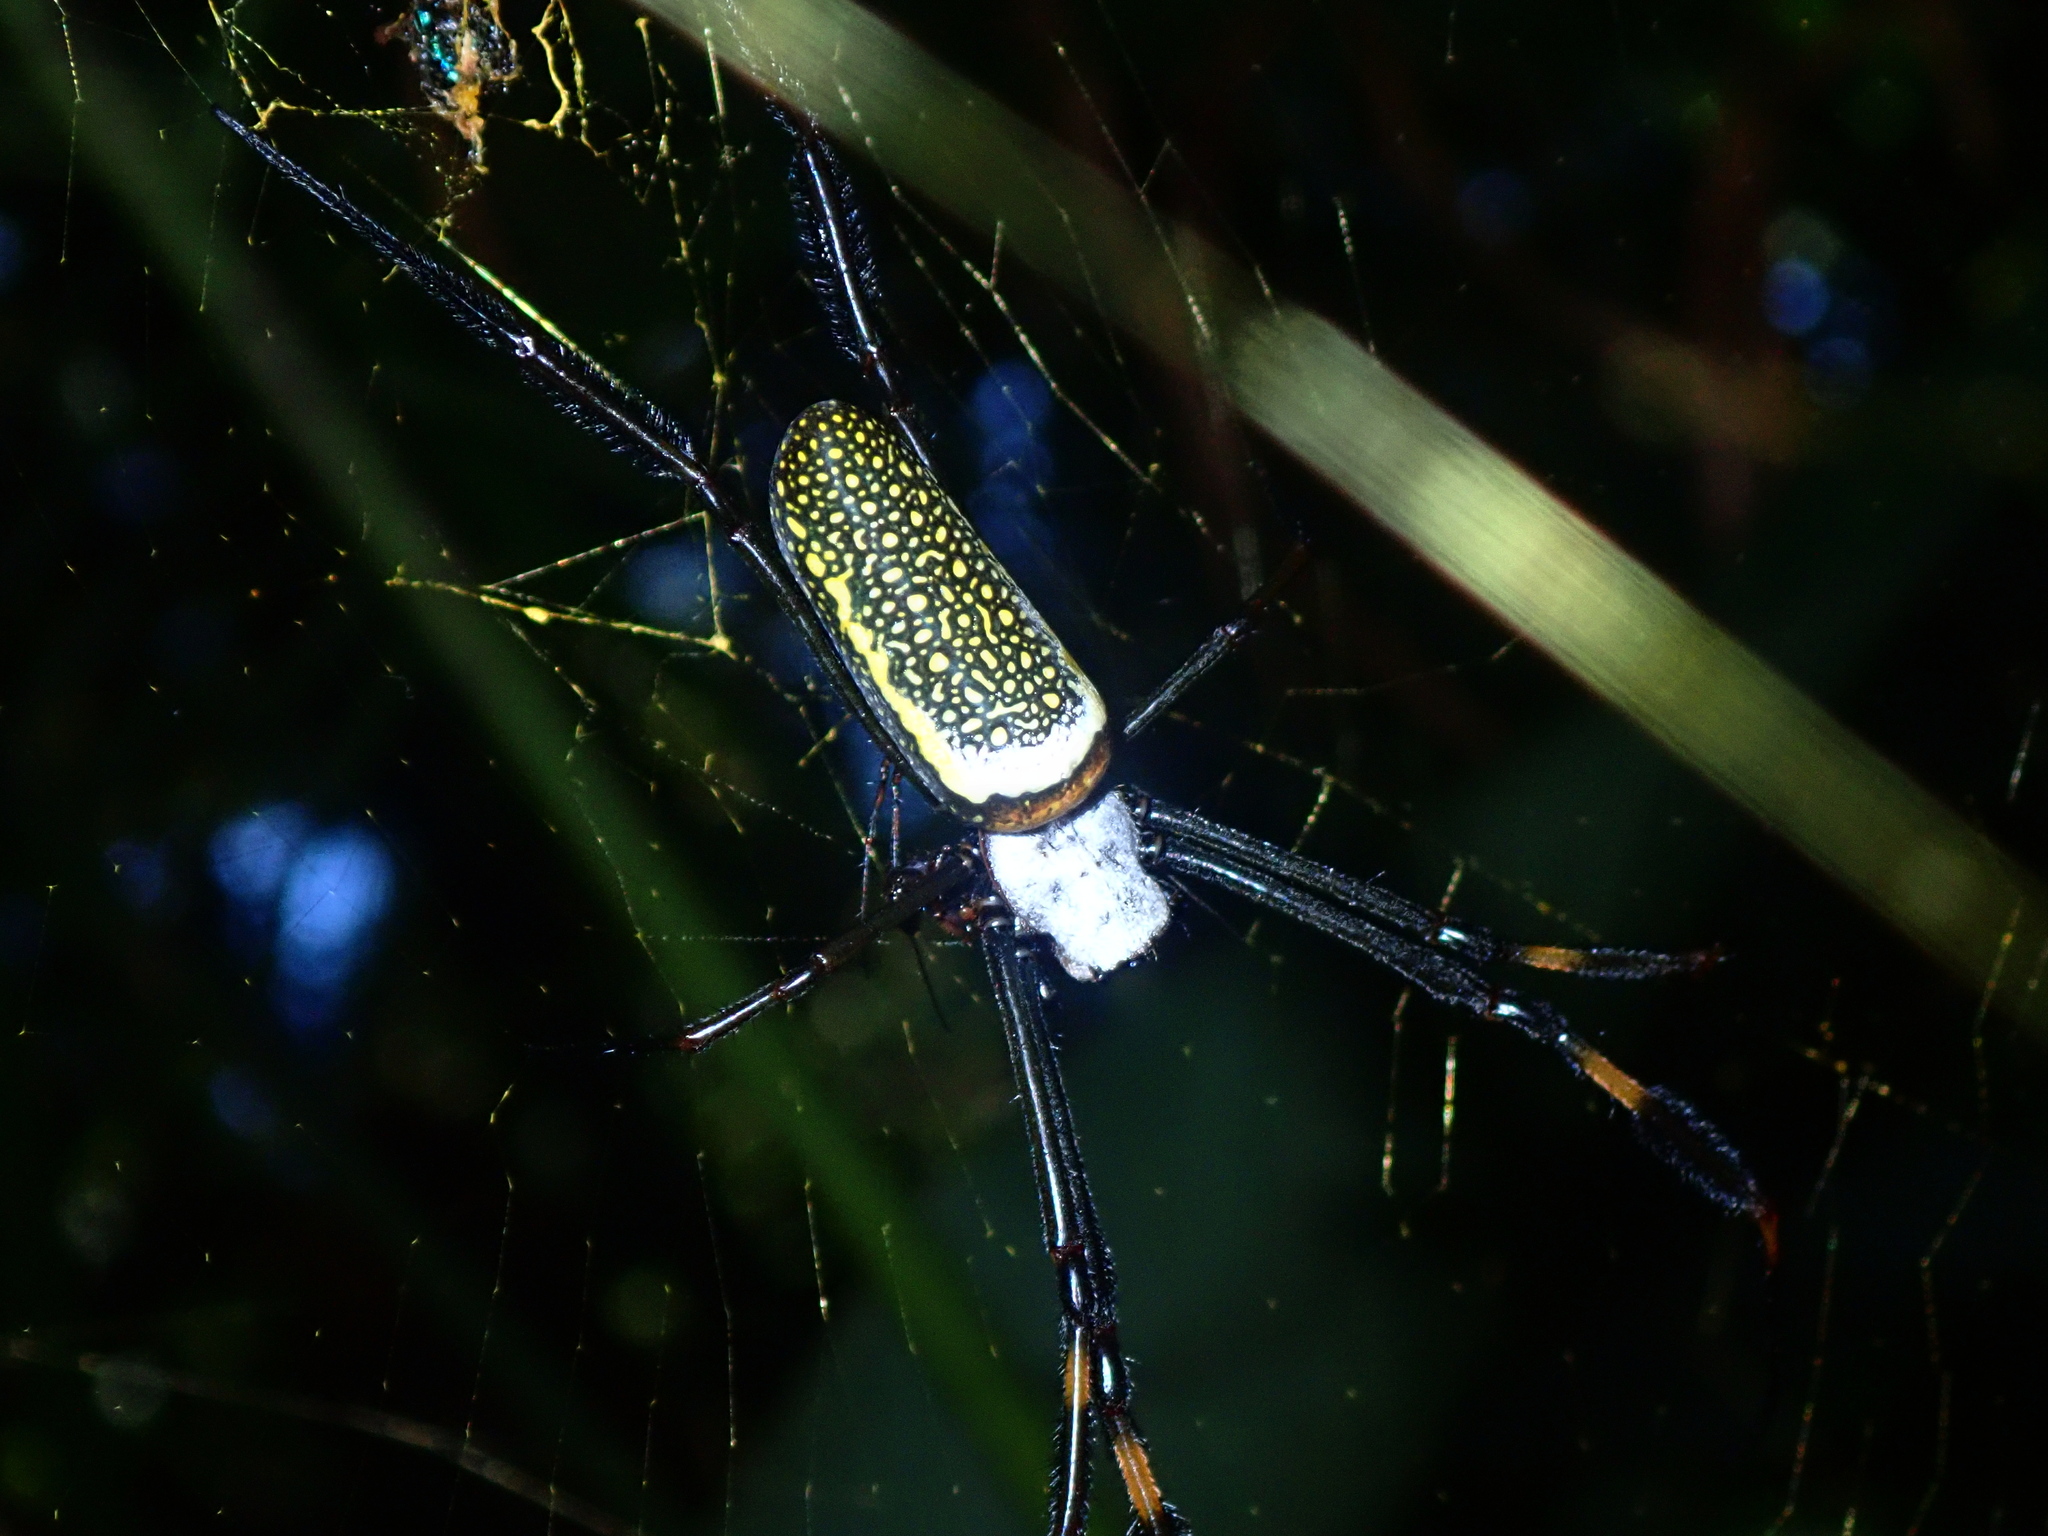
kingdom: Animalia
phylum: Arthropoda
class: Arachnida
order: Araneae
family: Araneidae
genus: Trichonephila
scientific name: Trichonephila clavipes
